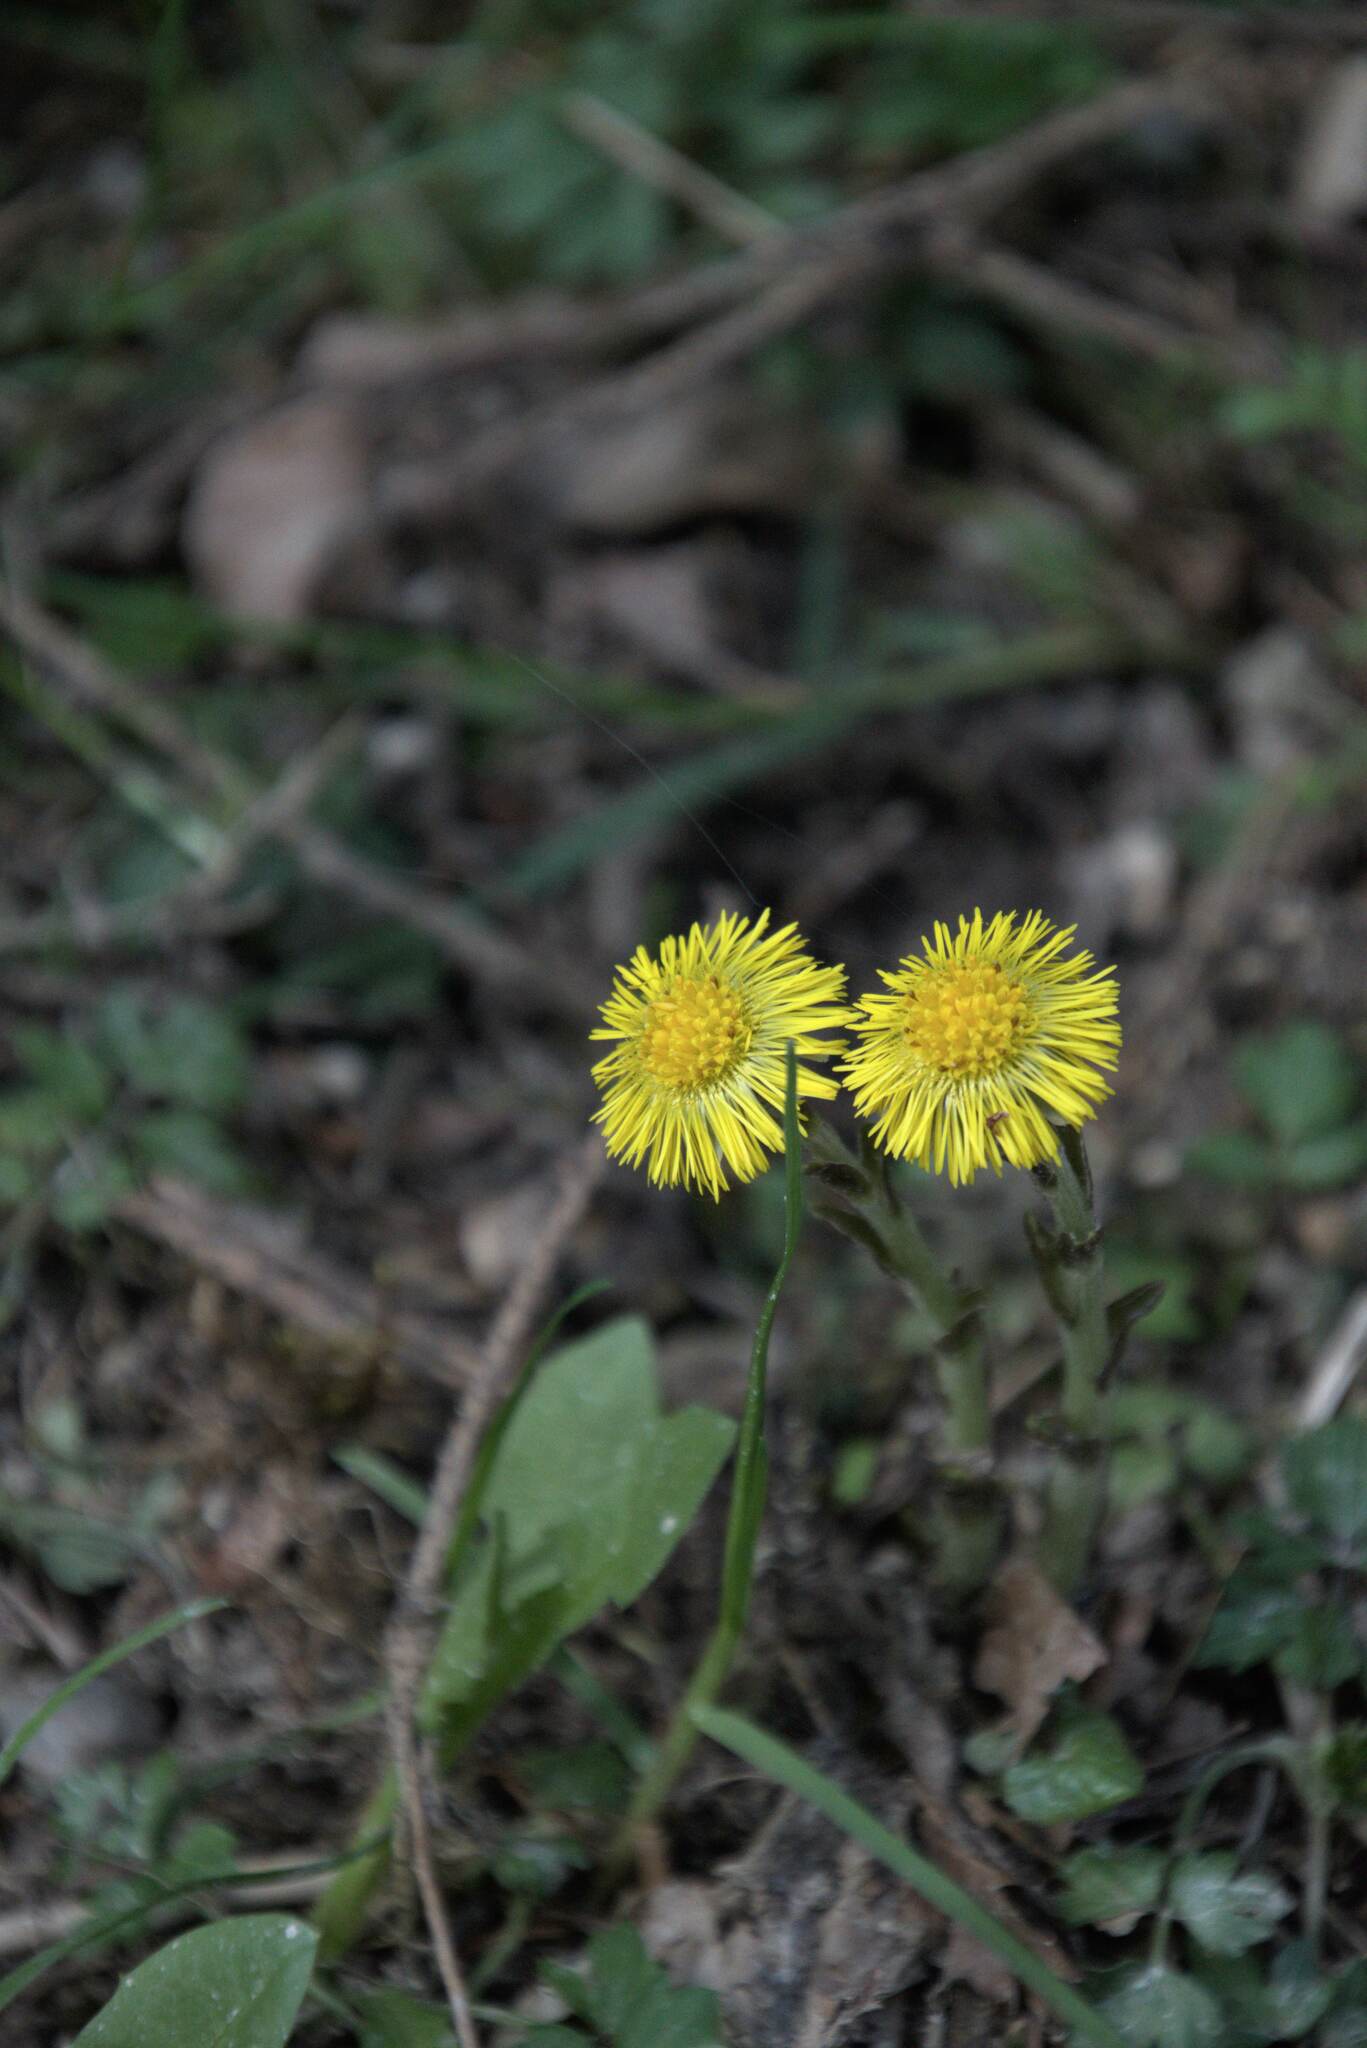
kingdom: Plantae
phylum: Tracheophyta
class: Magnoliopsida
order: Asterales
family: Asteraceae
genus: Tussilago
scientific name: Tussilago farfara
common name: Coltsfoot
